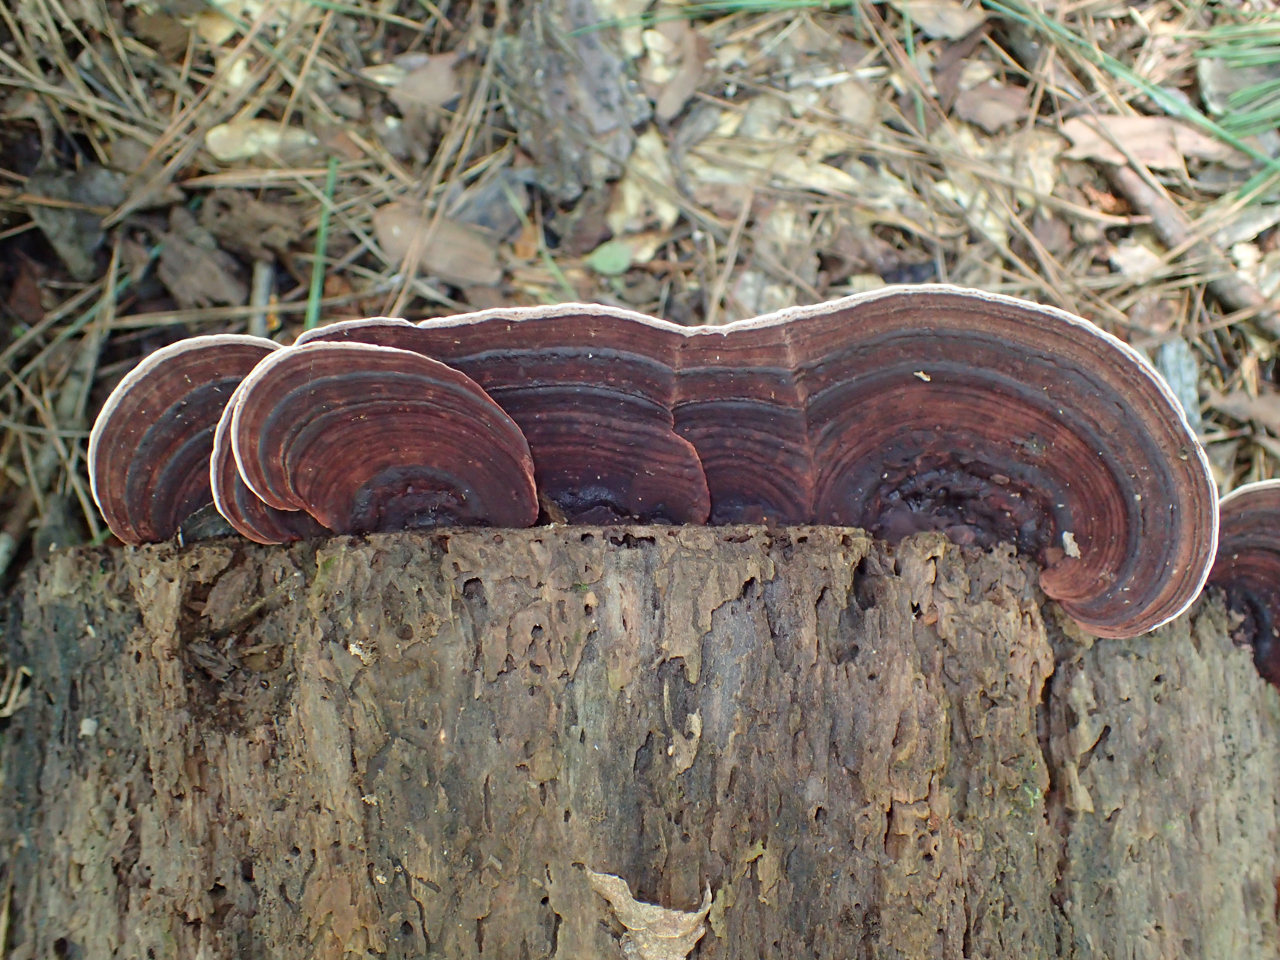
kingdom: Fungi
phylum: Basidiomycota
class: Agaricomycetes
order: Polyporales
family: Steccherinaceae
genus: Nigroporus
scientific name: Nigroporus vinosus
